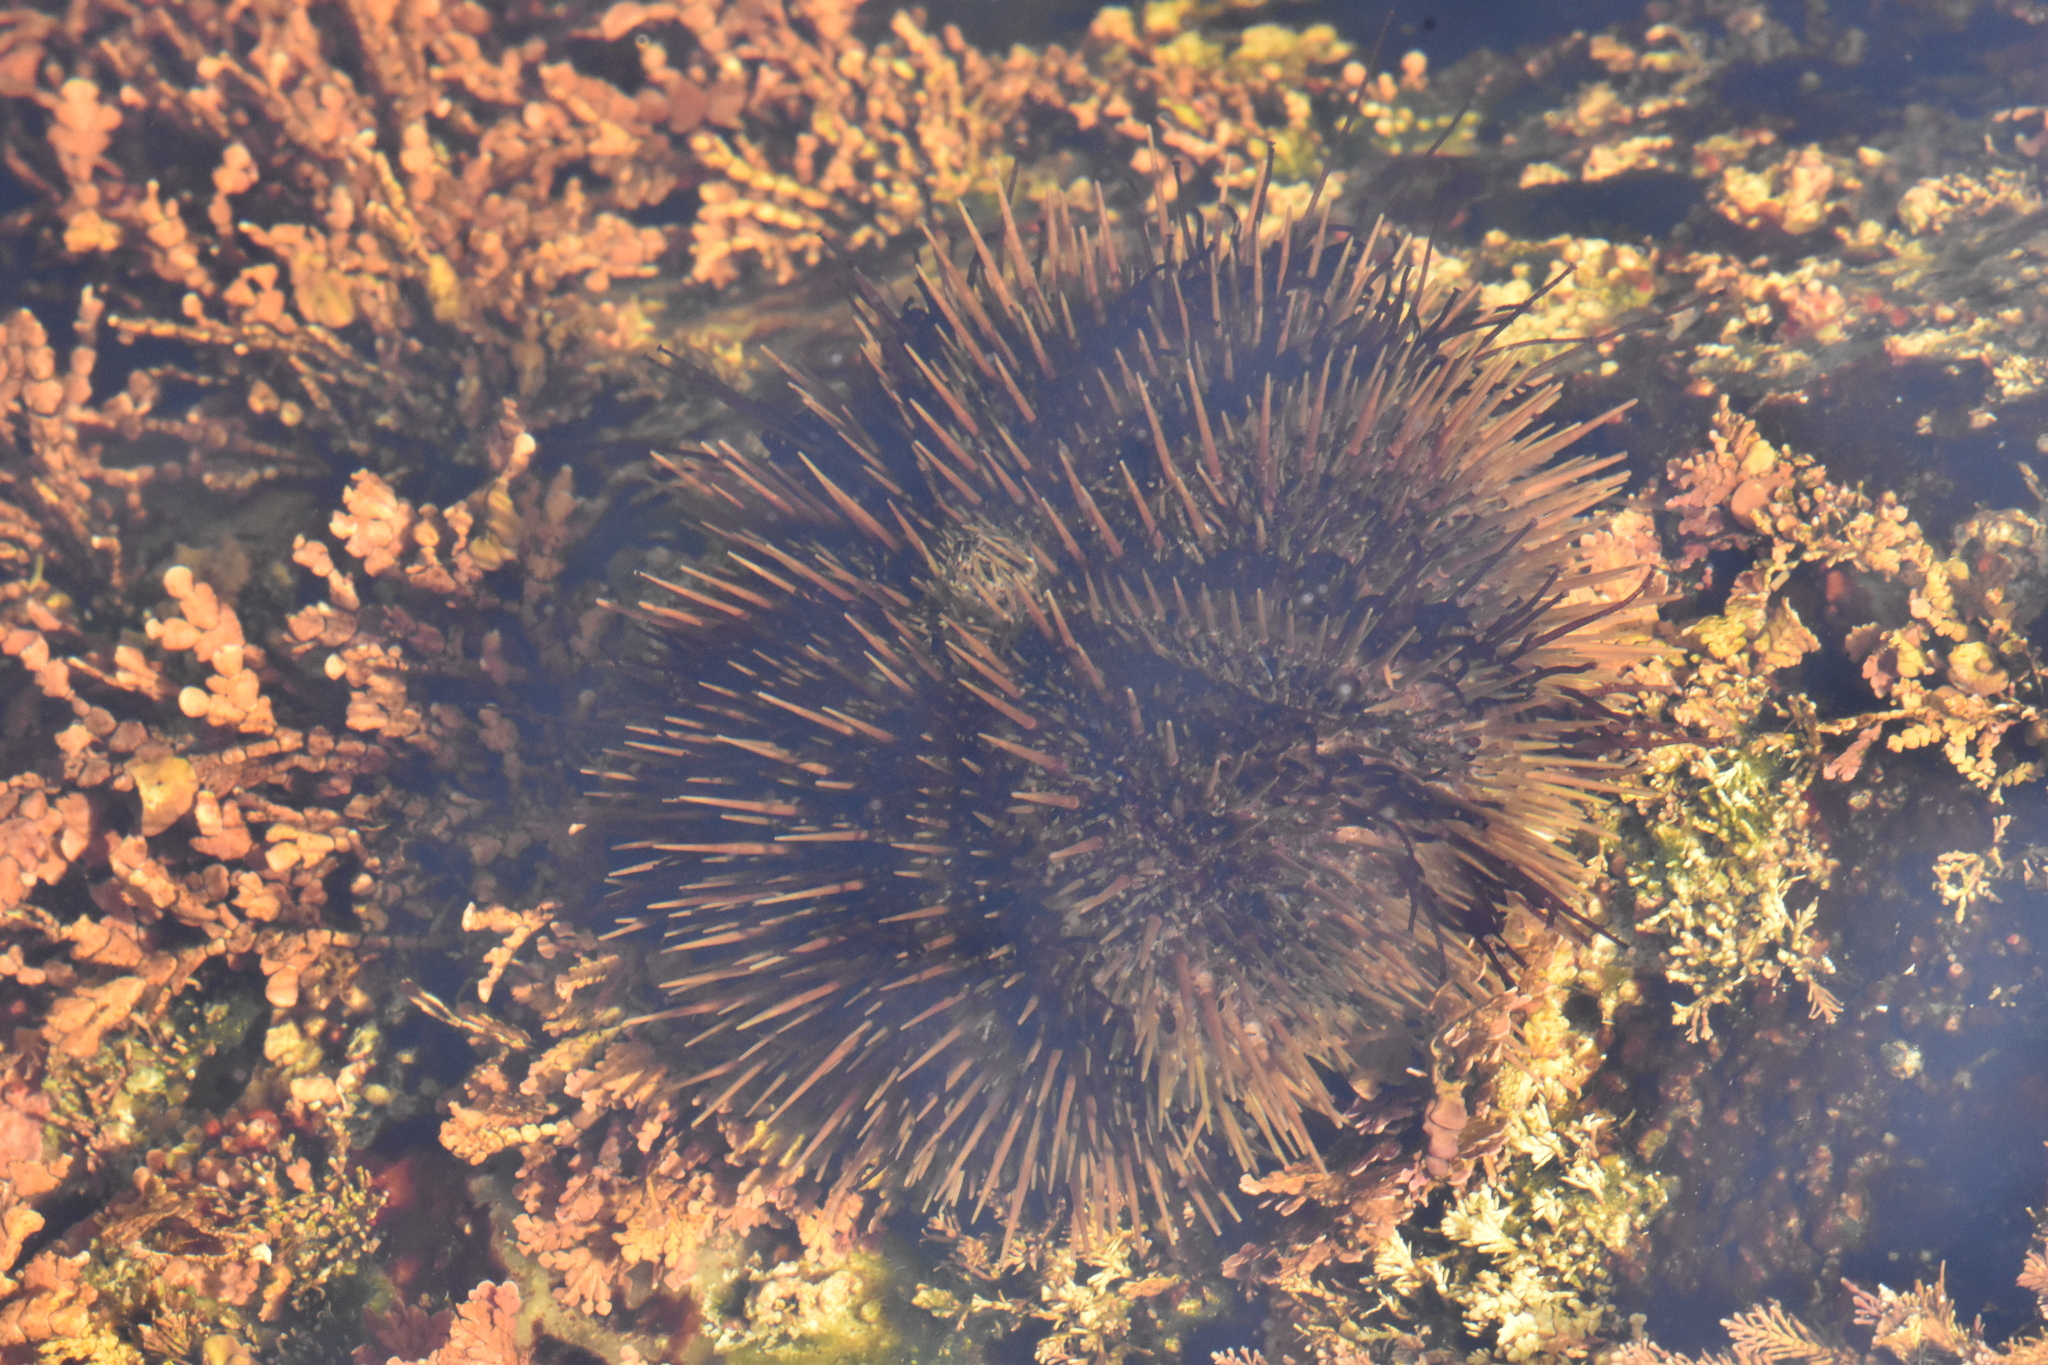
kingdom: Animalia
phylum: Echinodermata
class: Echinoidea
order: Camarodonta
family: Strongylocentrotidae
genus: Strongylocentrotus
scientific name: Strongylocentrotus droebachiensis
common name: Northern sea urchin
